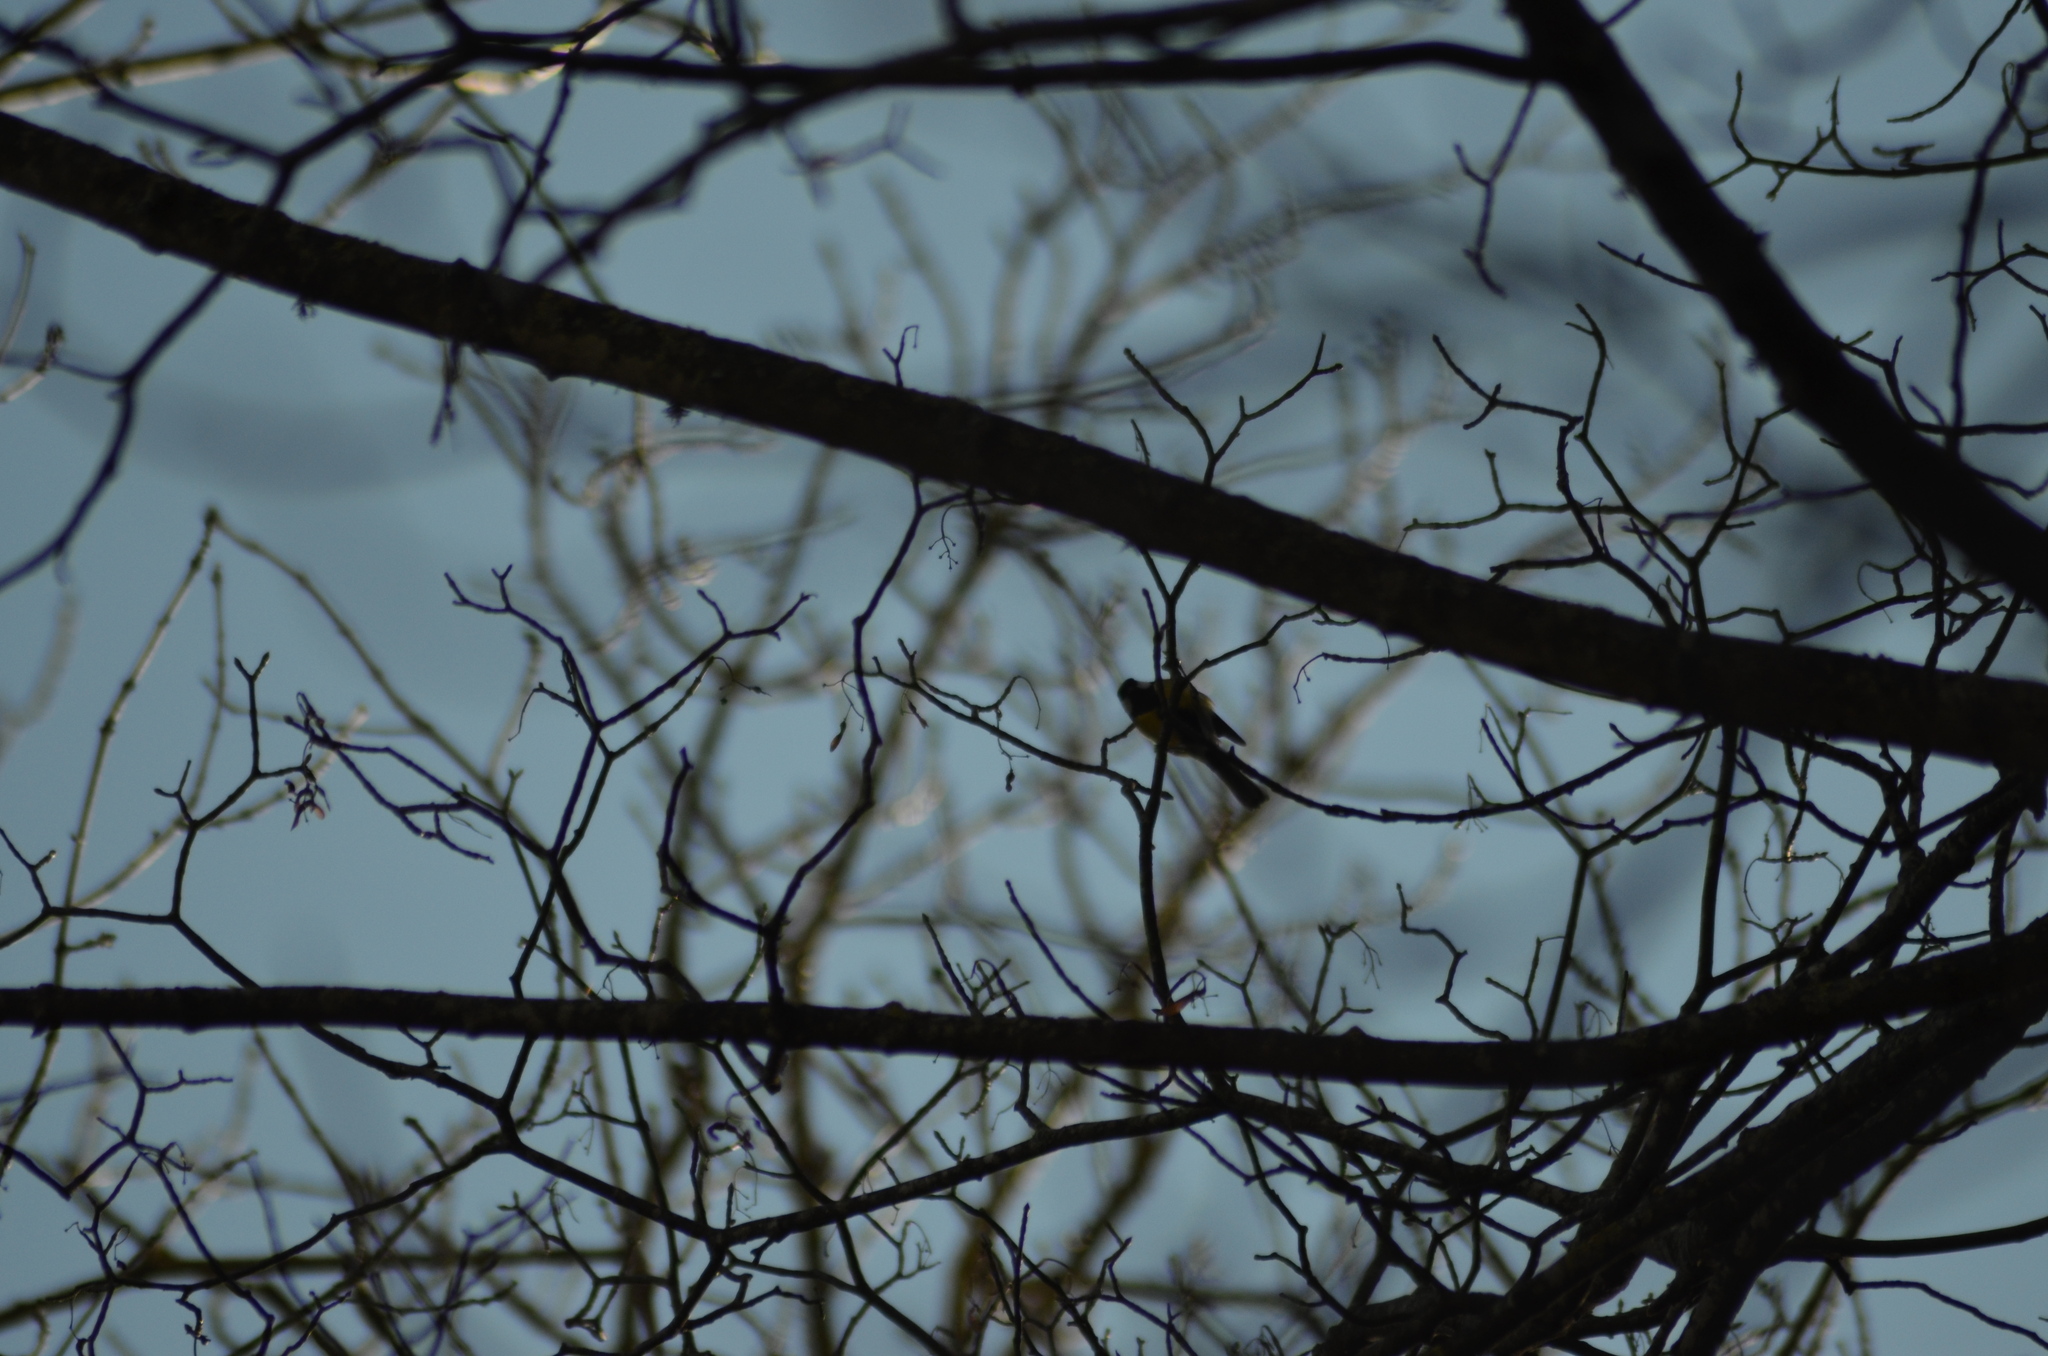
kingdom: Animalia
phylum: Chordata
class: Aves
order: Passeriformes
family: Paridae
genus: Parus
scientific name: Parus major
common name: Great tit
